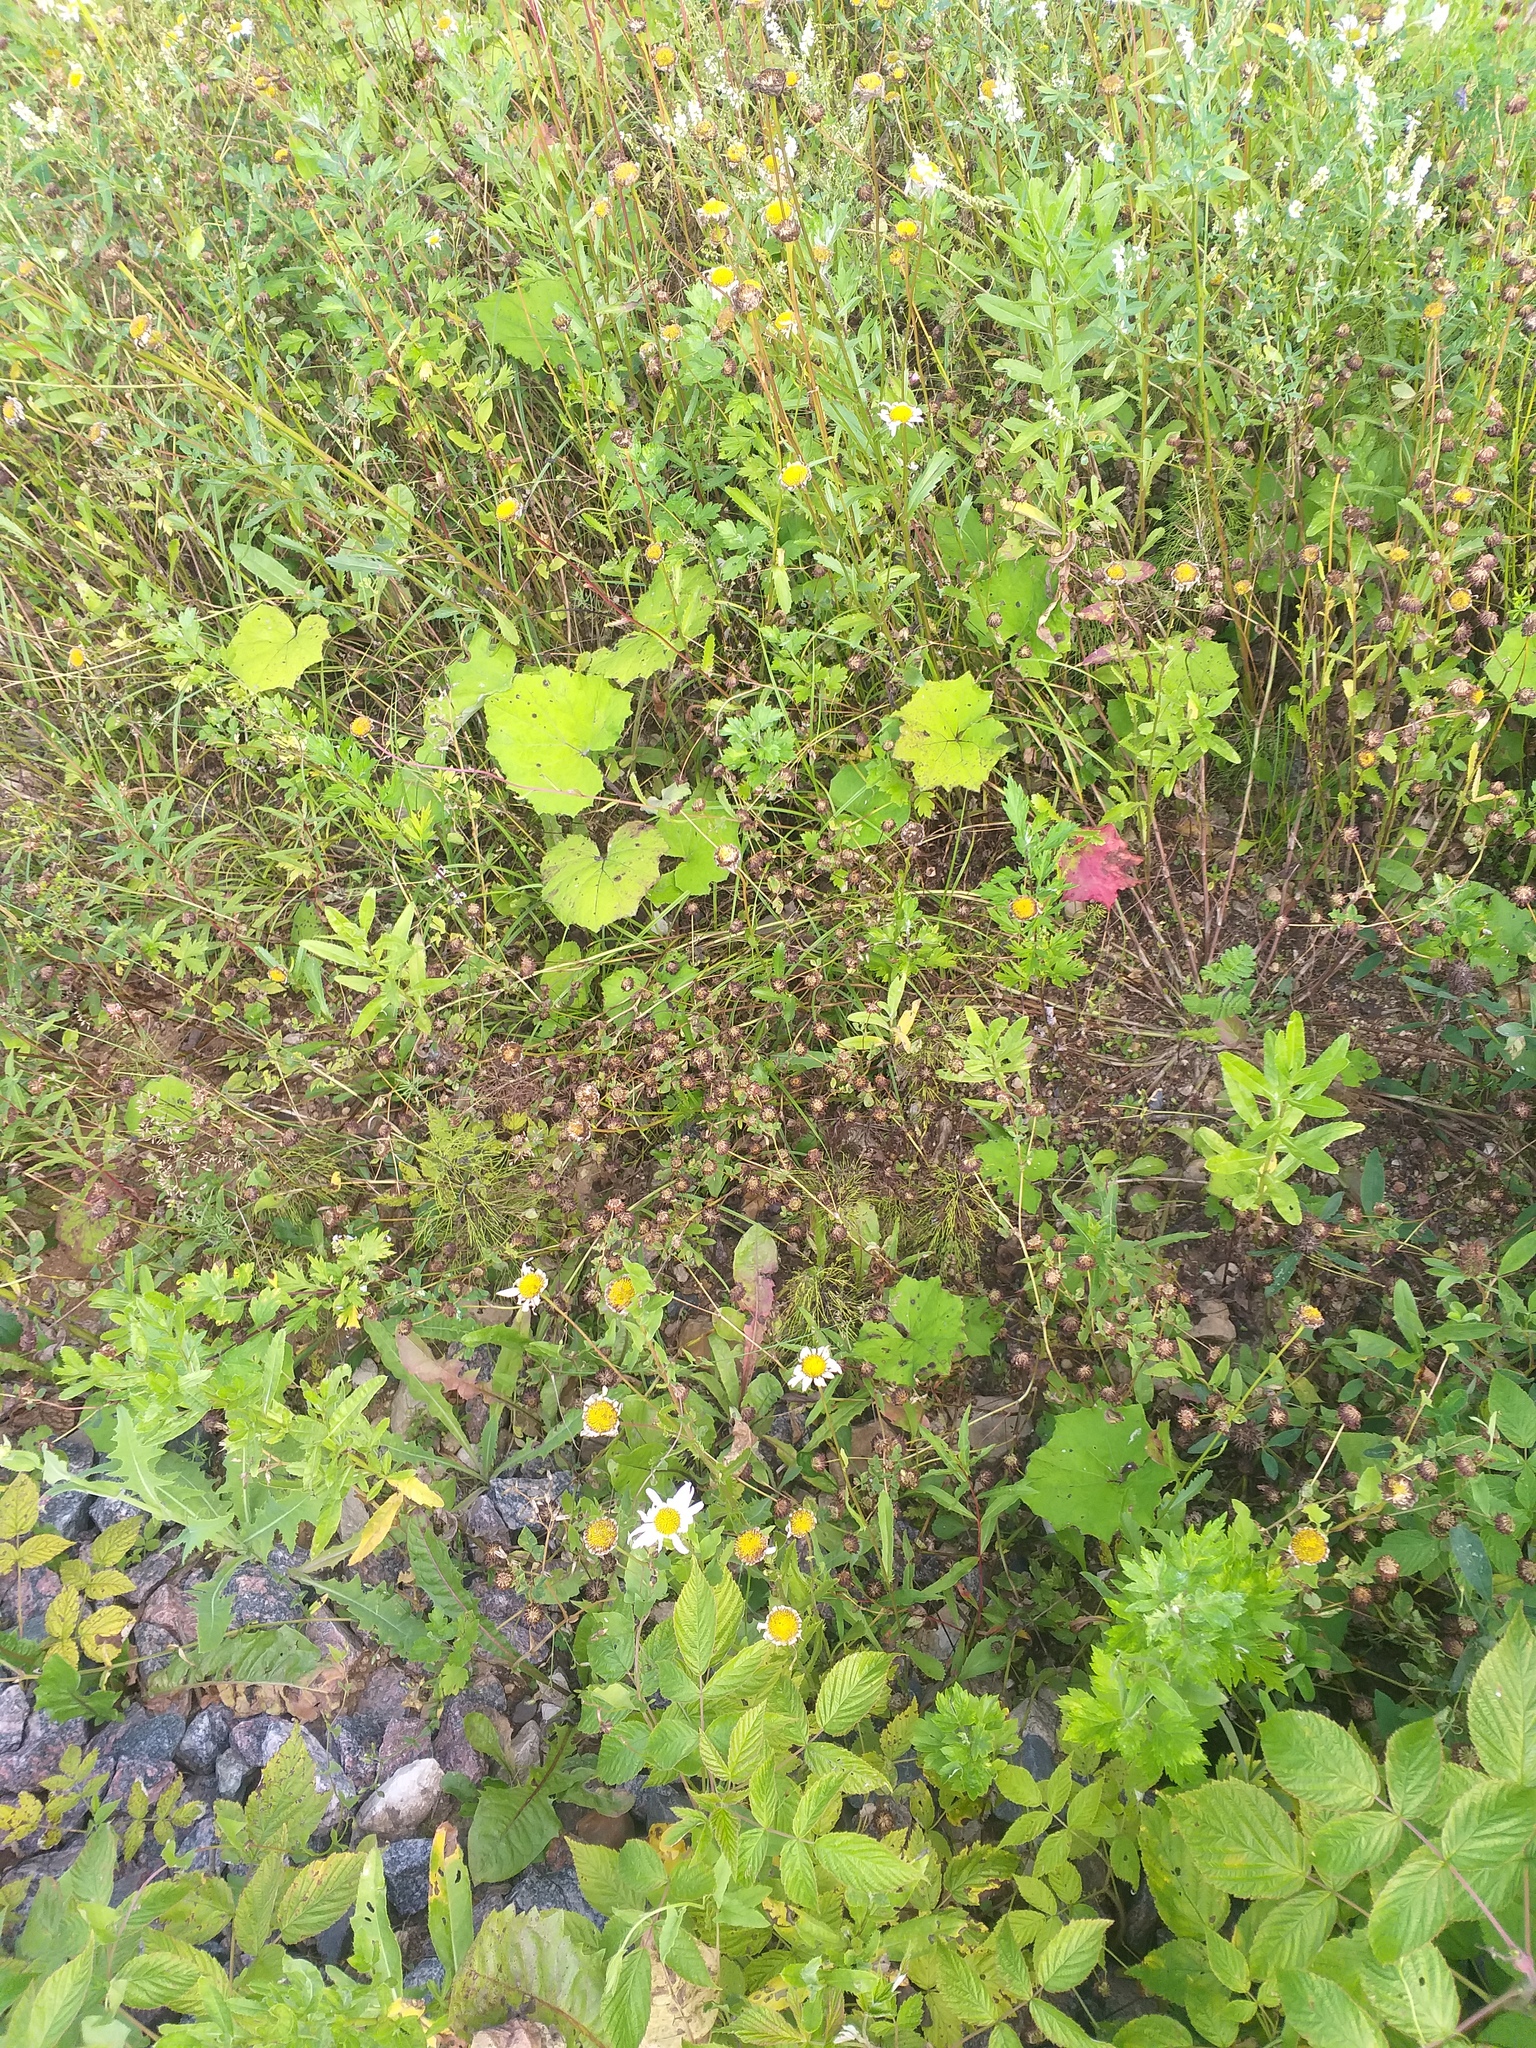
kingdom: Plantae
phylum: Tracheophyta
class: Magnoliopsida
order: Fabales
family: Fabaceae
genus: Trifolium
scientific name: Trifolium hybridum
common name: Alsike clover
